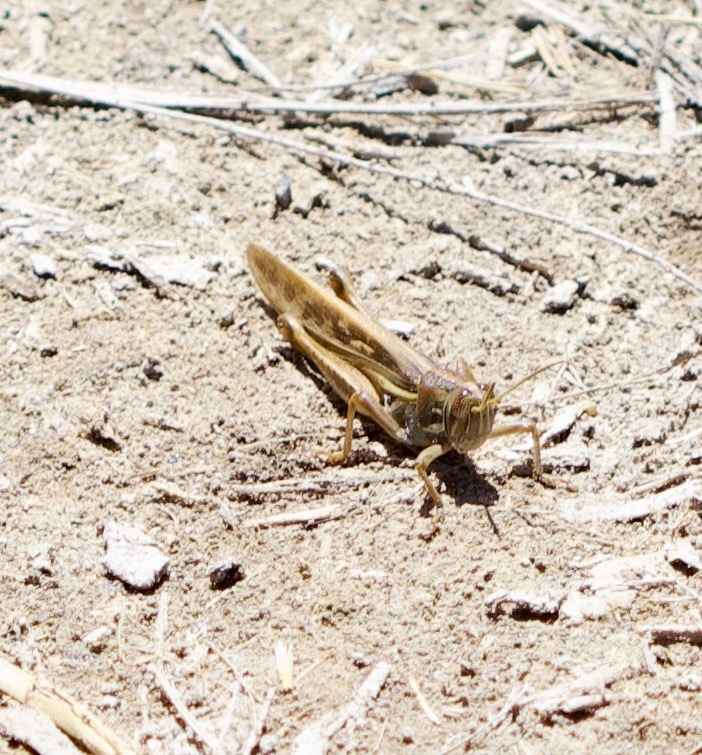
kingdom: Animalia
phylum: Arthropoda
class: Insecta
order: Orthoptera
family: Acrididae
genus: Schistocerca
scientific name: Schistocerca cancellata
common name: South american locust
